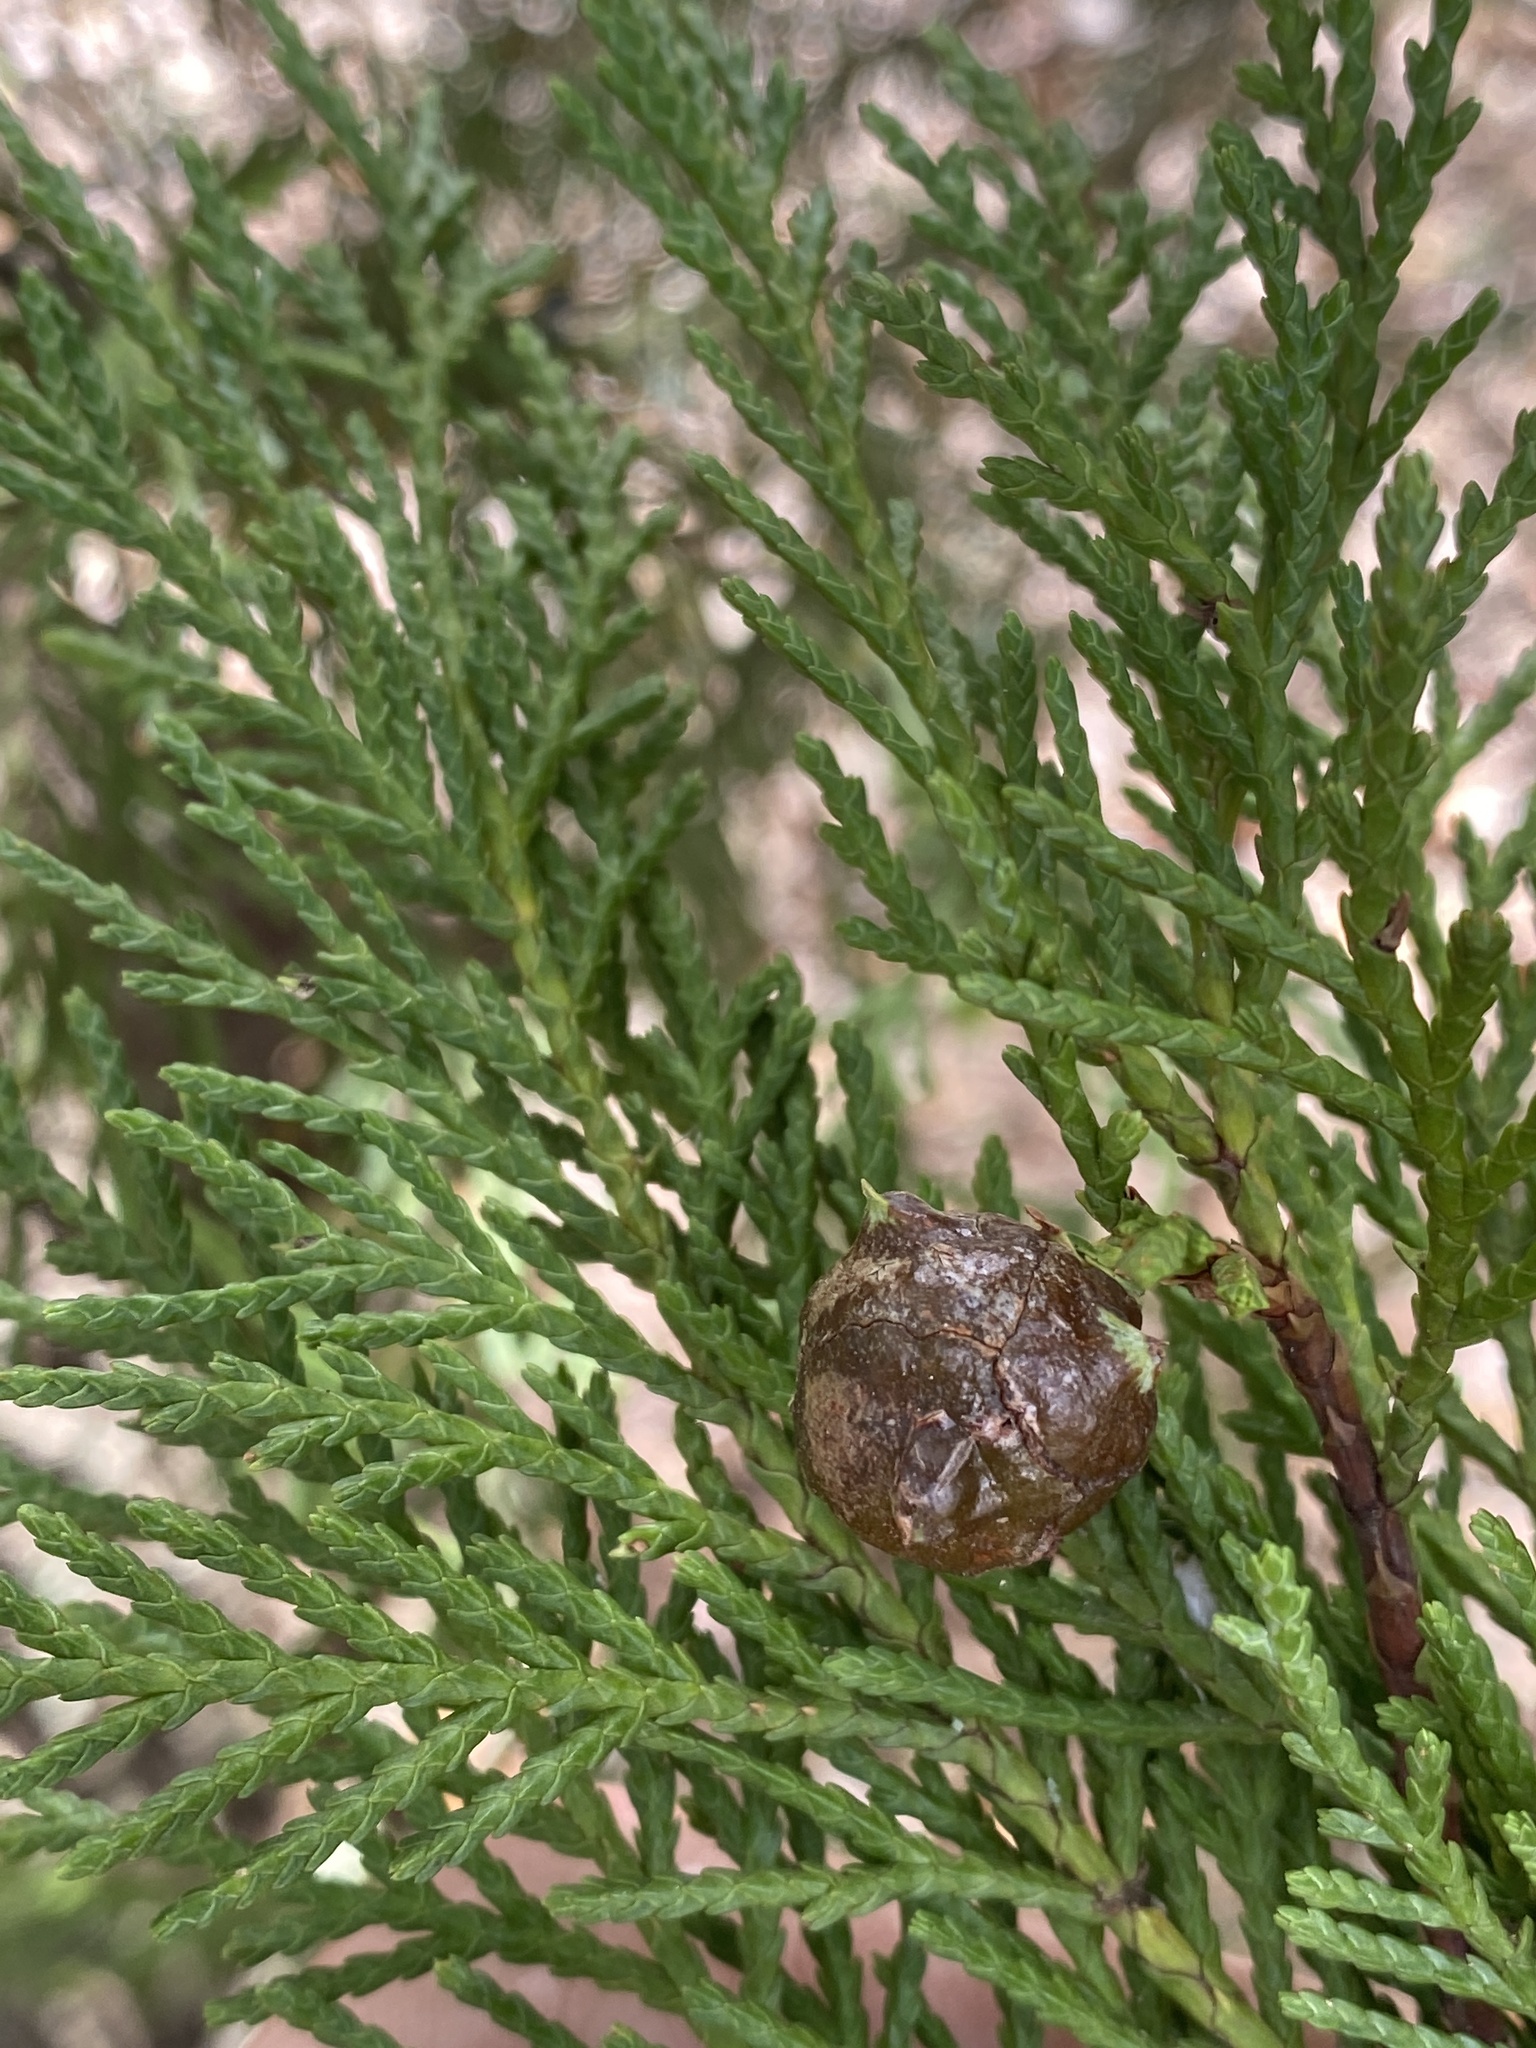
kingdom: Fungi
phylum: Basidiomycota
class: Pucciniomycetes
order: Pucciniales
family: Gymnosporangiaceae
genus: Gymnosporangium
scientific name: Gymnosporangium juniperi-virginianae
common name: Juniper-apple rust
